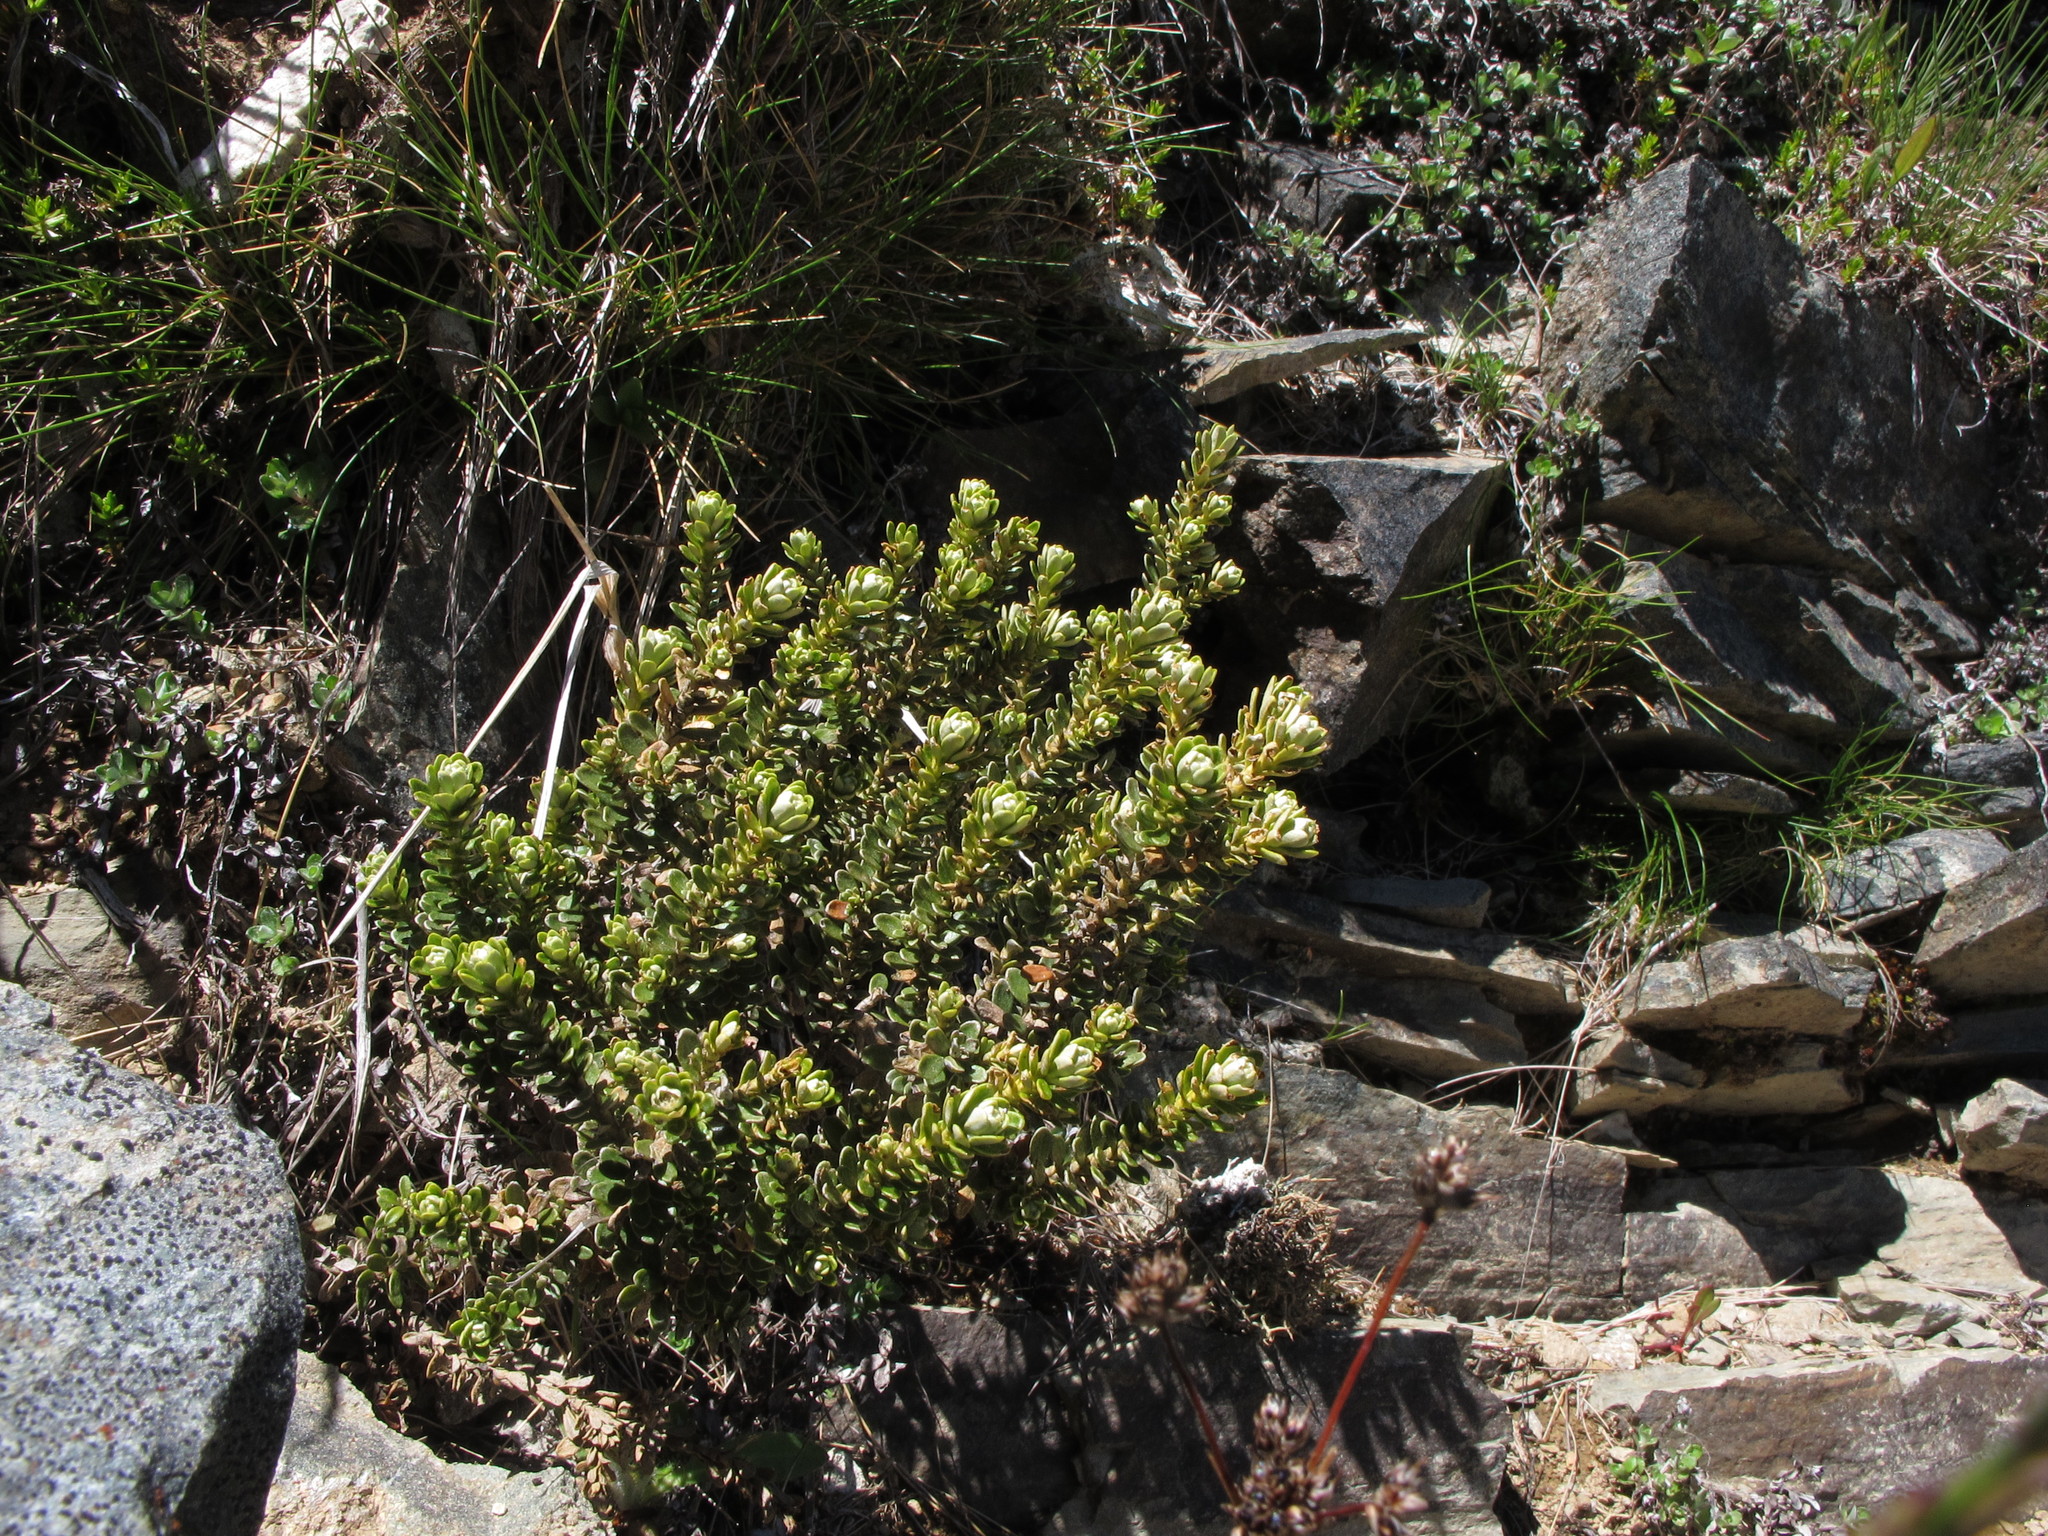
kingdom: Plantae
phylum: Tracheophyta
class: Magnoliopsida
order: Asterales
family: Asteraceae
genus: Ozothamnus
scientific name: Ozothamnus leptophyllus
